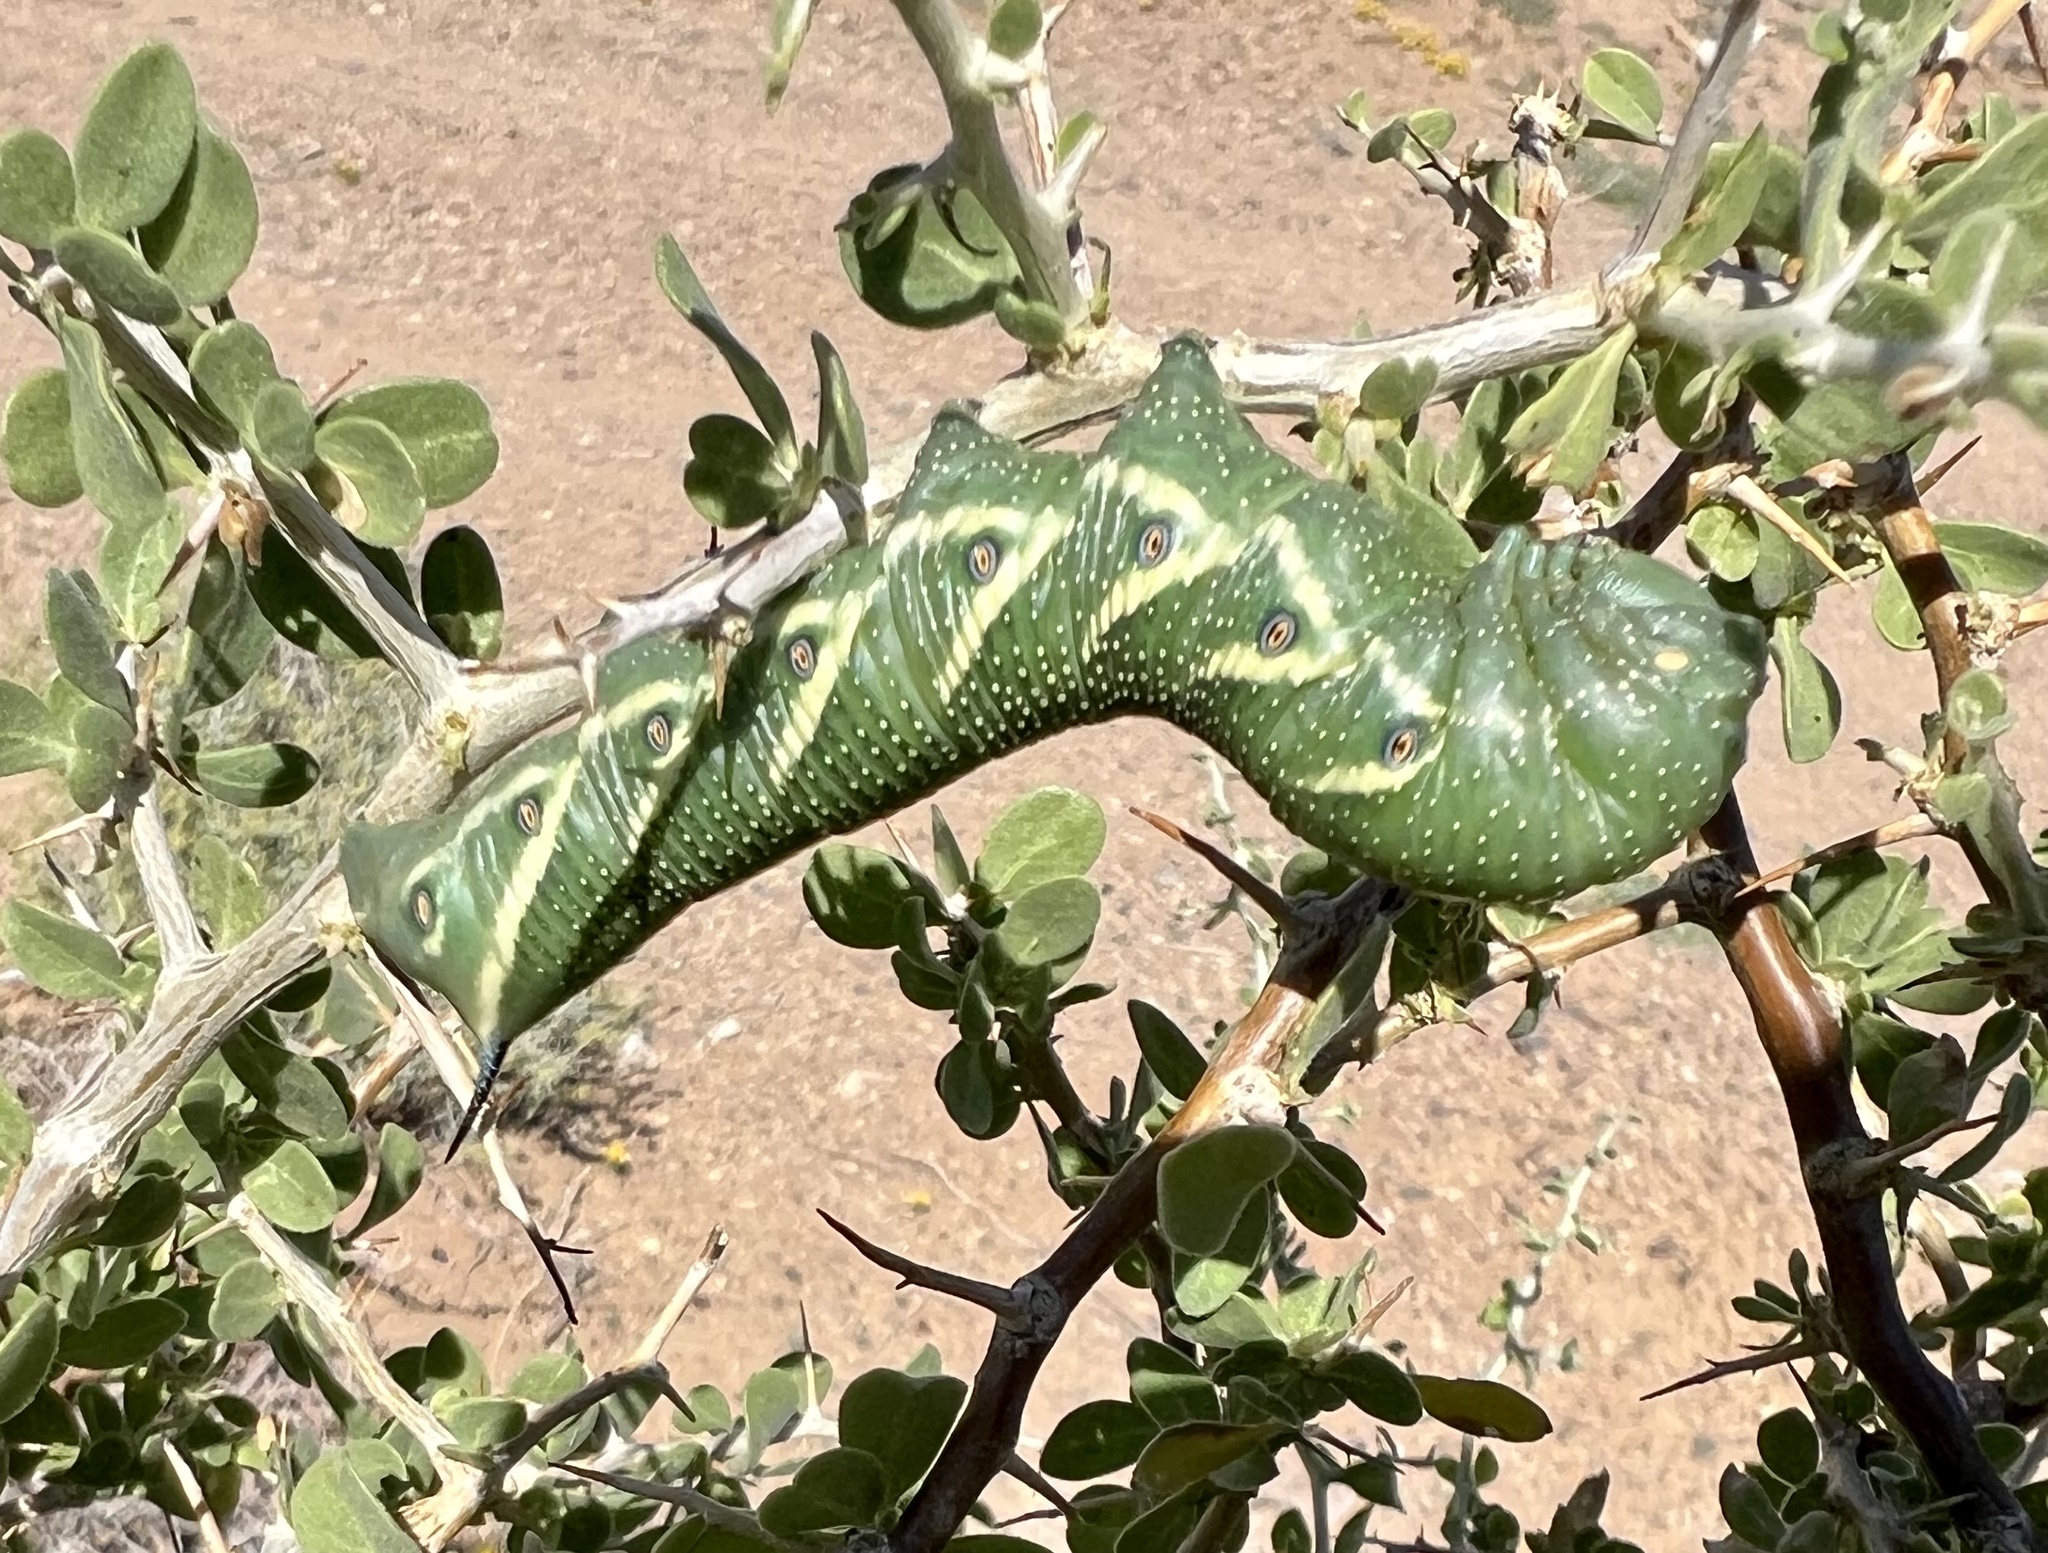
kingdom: Animalia
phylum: Arthropoda
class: Insecta
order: Lepidoptera
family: Sphingidae
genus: Manduca
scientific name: Manduca quinquemaculatus
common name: Five-spotted hawk-moth
